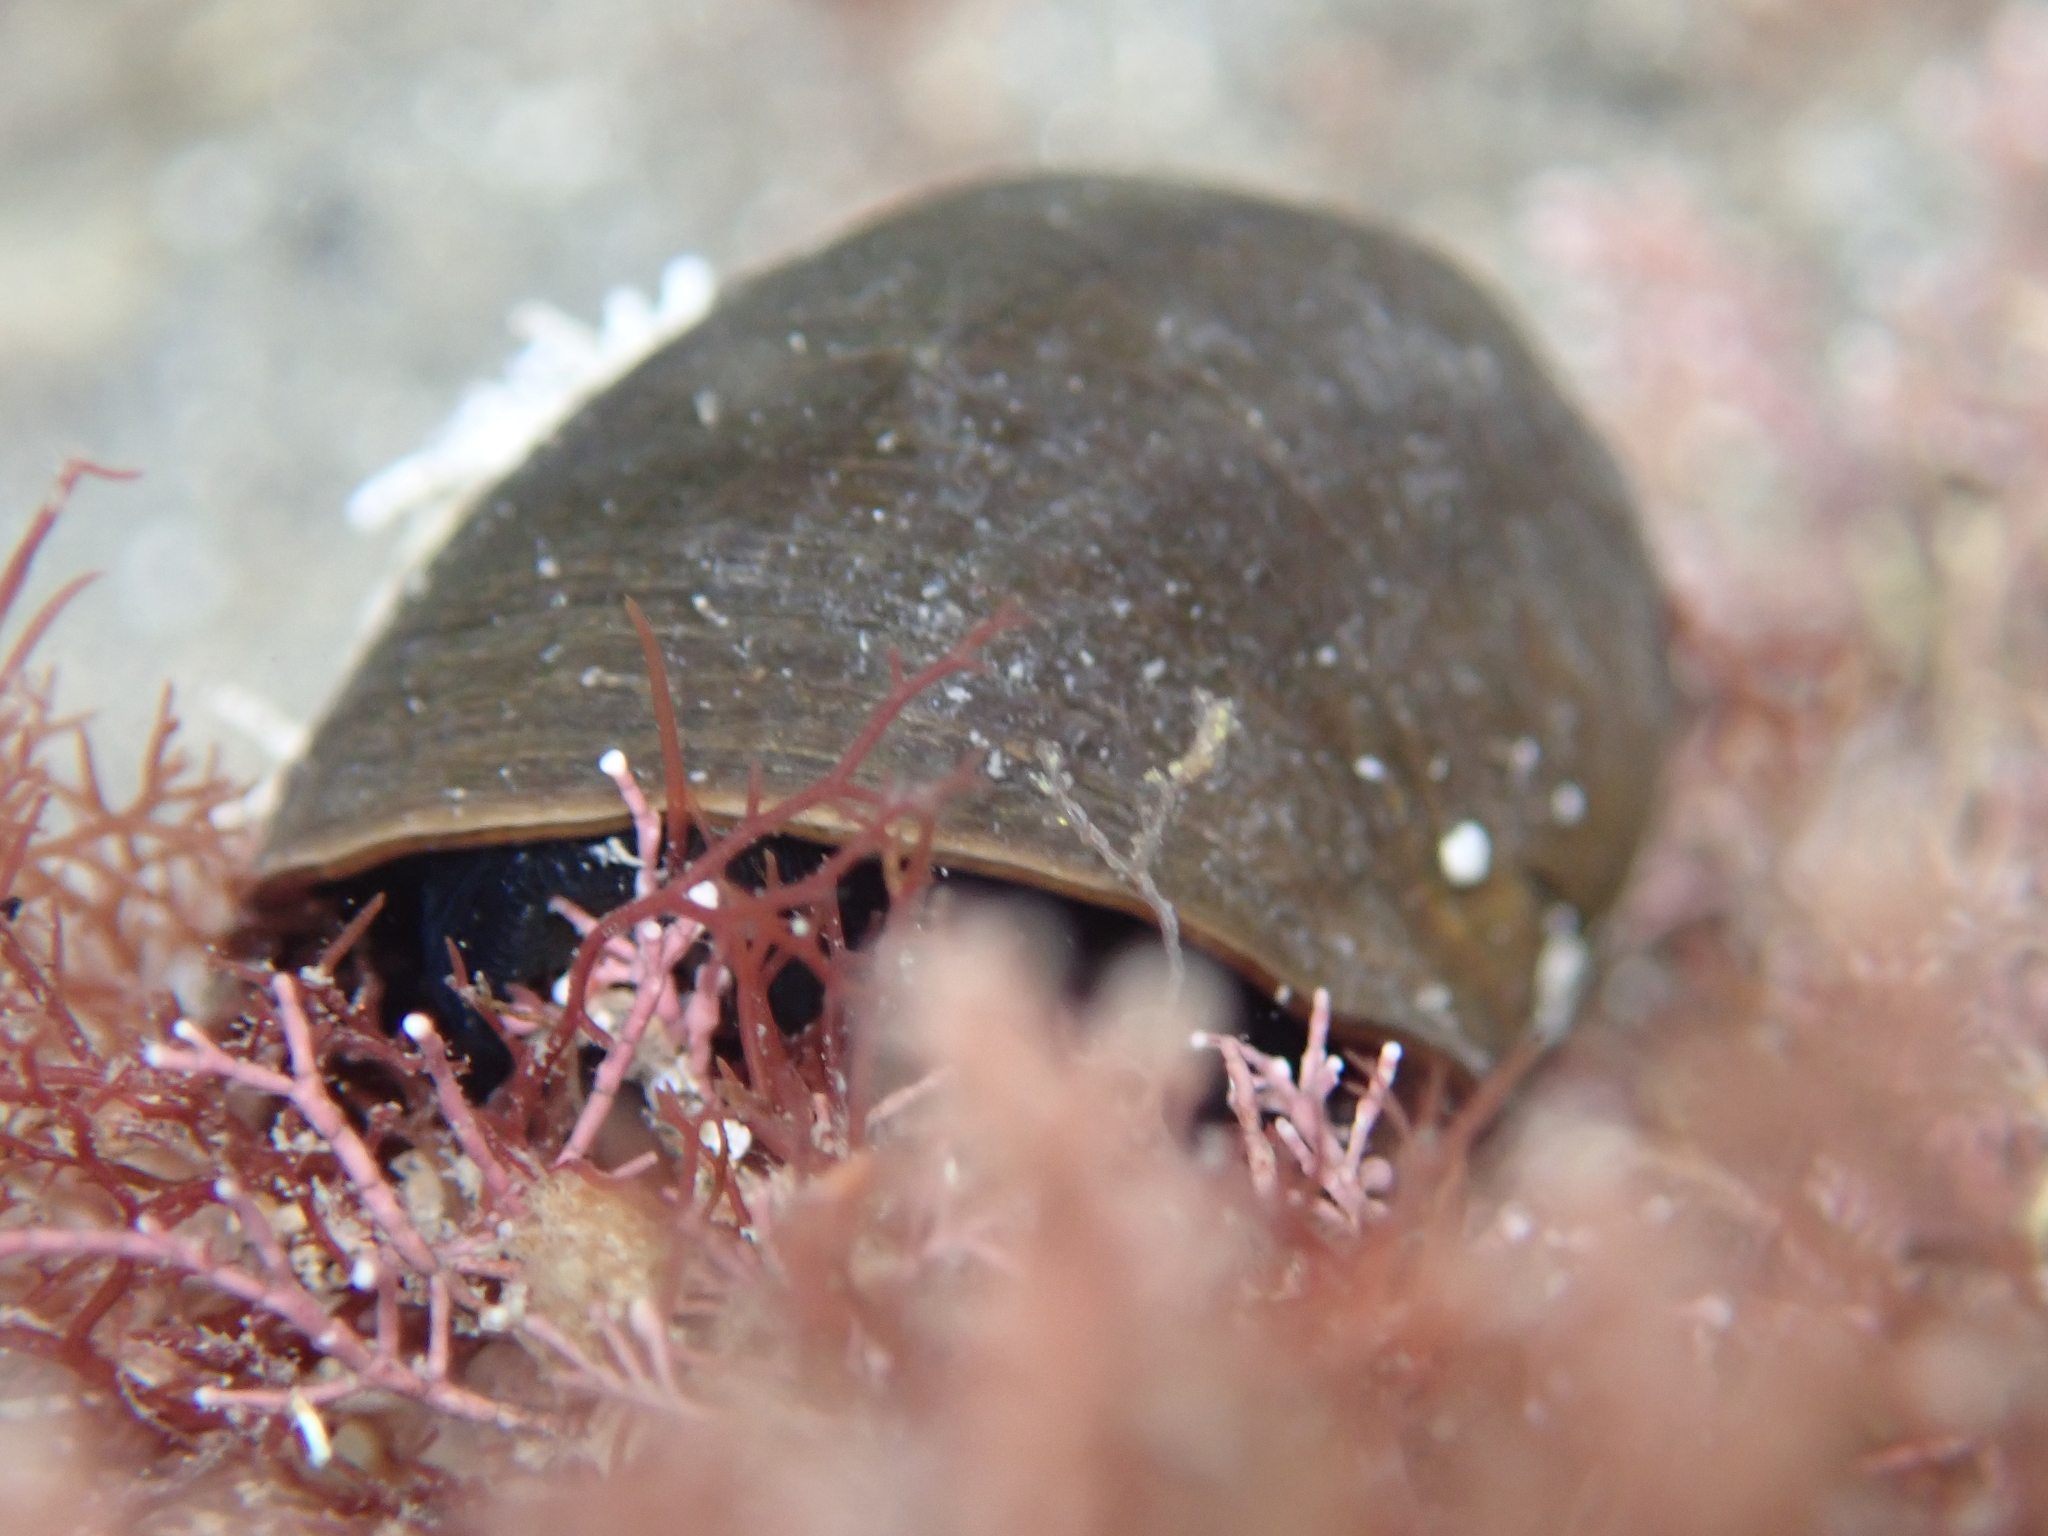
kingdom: Animalia
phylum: Mollusca
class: Gastropoda
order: Trochida
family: Turbinidae
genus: Lunella
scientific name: Lunella smaragda
